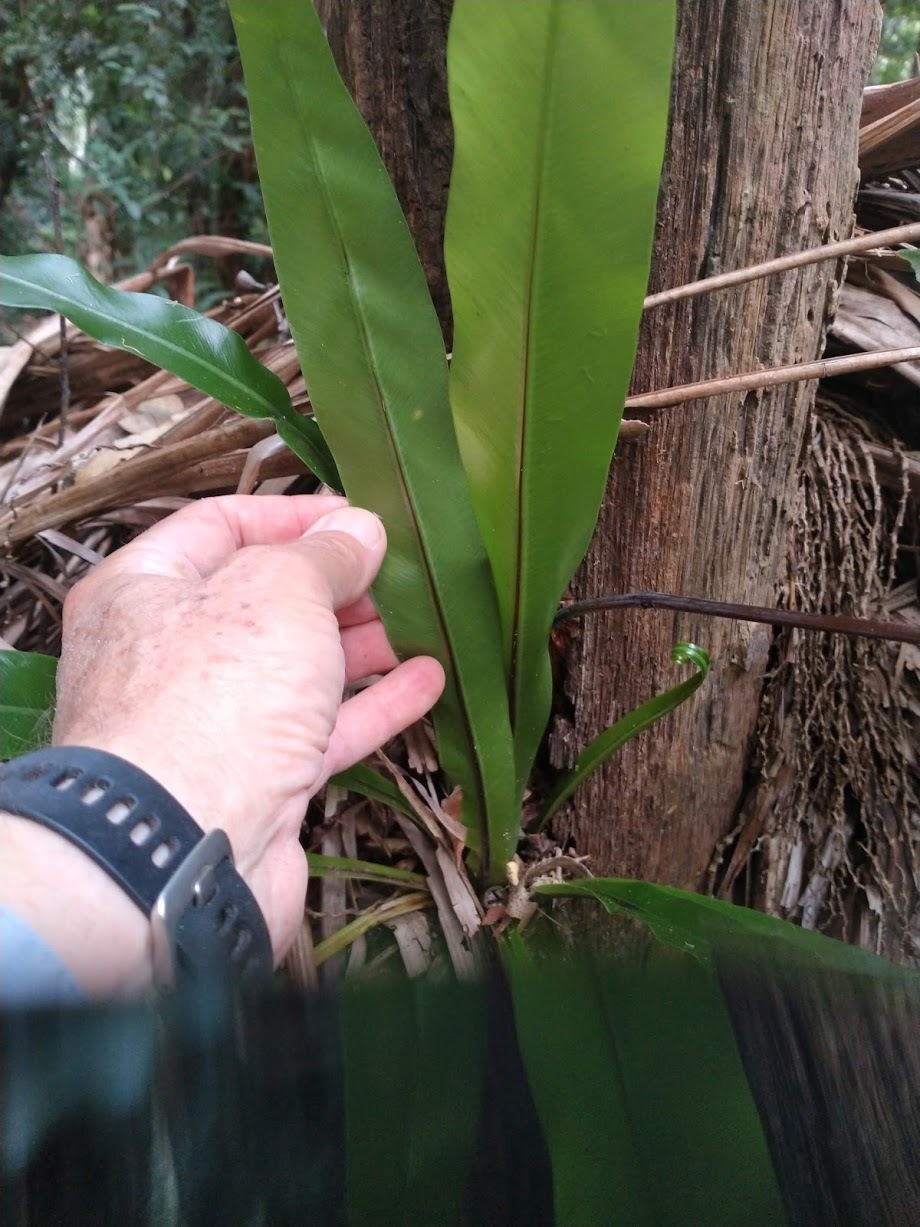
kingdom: Plantae
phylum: Tracheophyta
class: Polypodiopsida
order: Polypodiales
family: Aspleniaceae
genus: Asplenium
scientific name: Asplenium australasicum
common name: Bird's-nest fern
